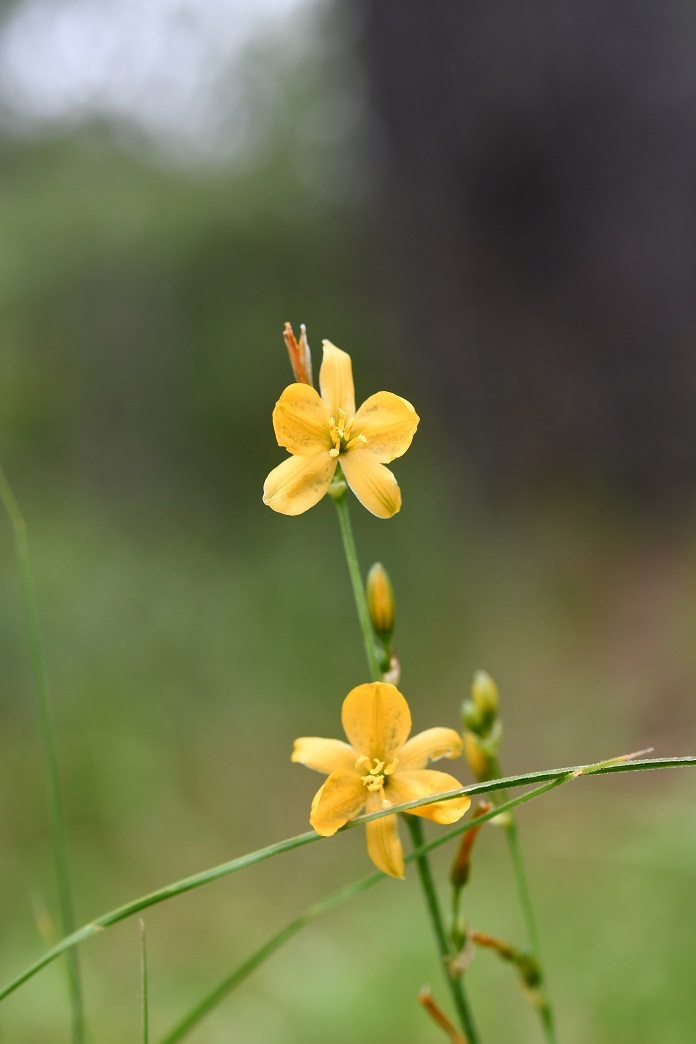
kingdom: Plantae
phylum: Tracheophyta
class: Liliopsida
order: Asparagales
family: Asparagaceae
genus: Echeandia
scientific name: Echeandia skinneri
